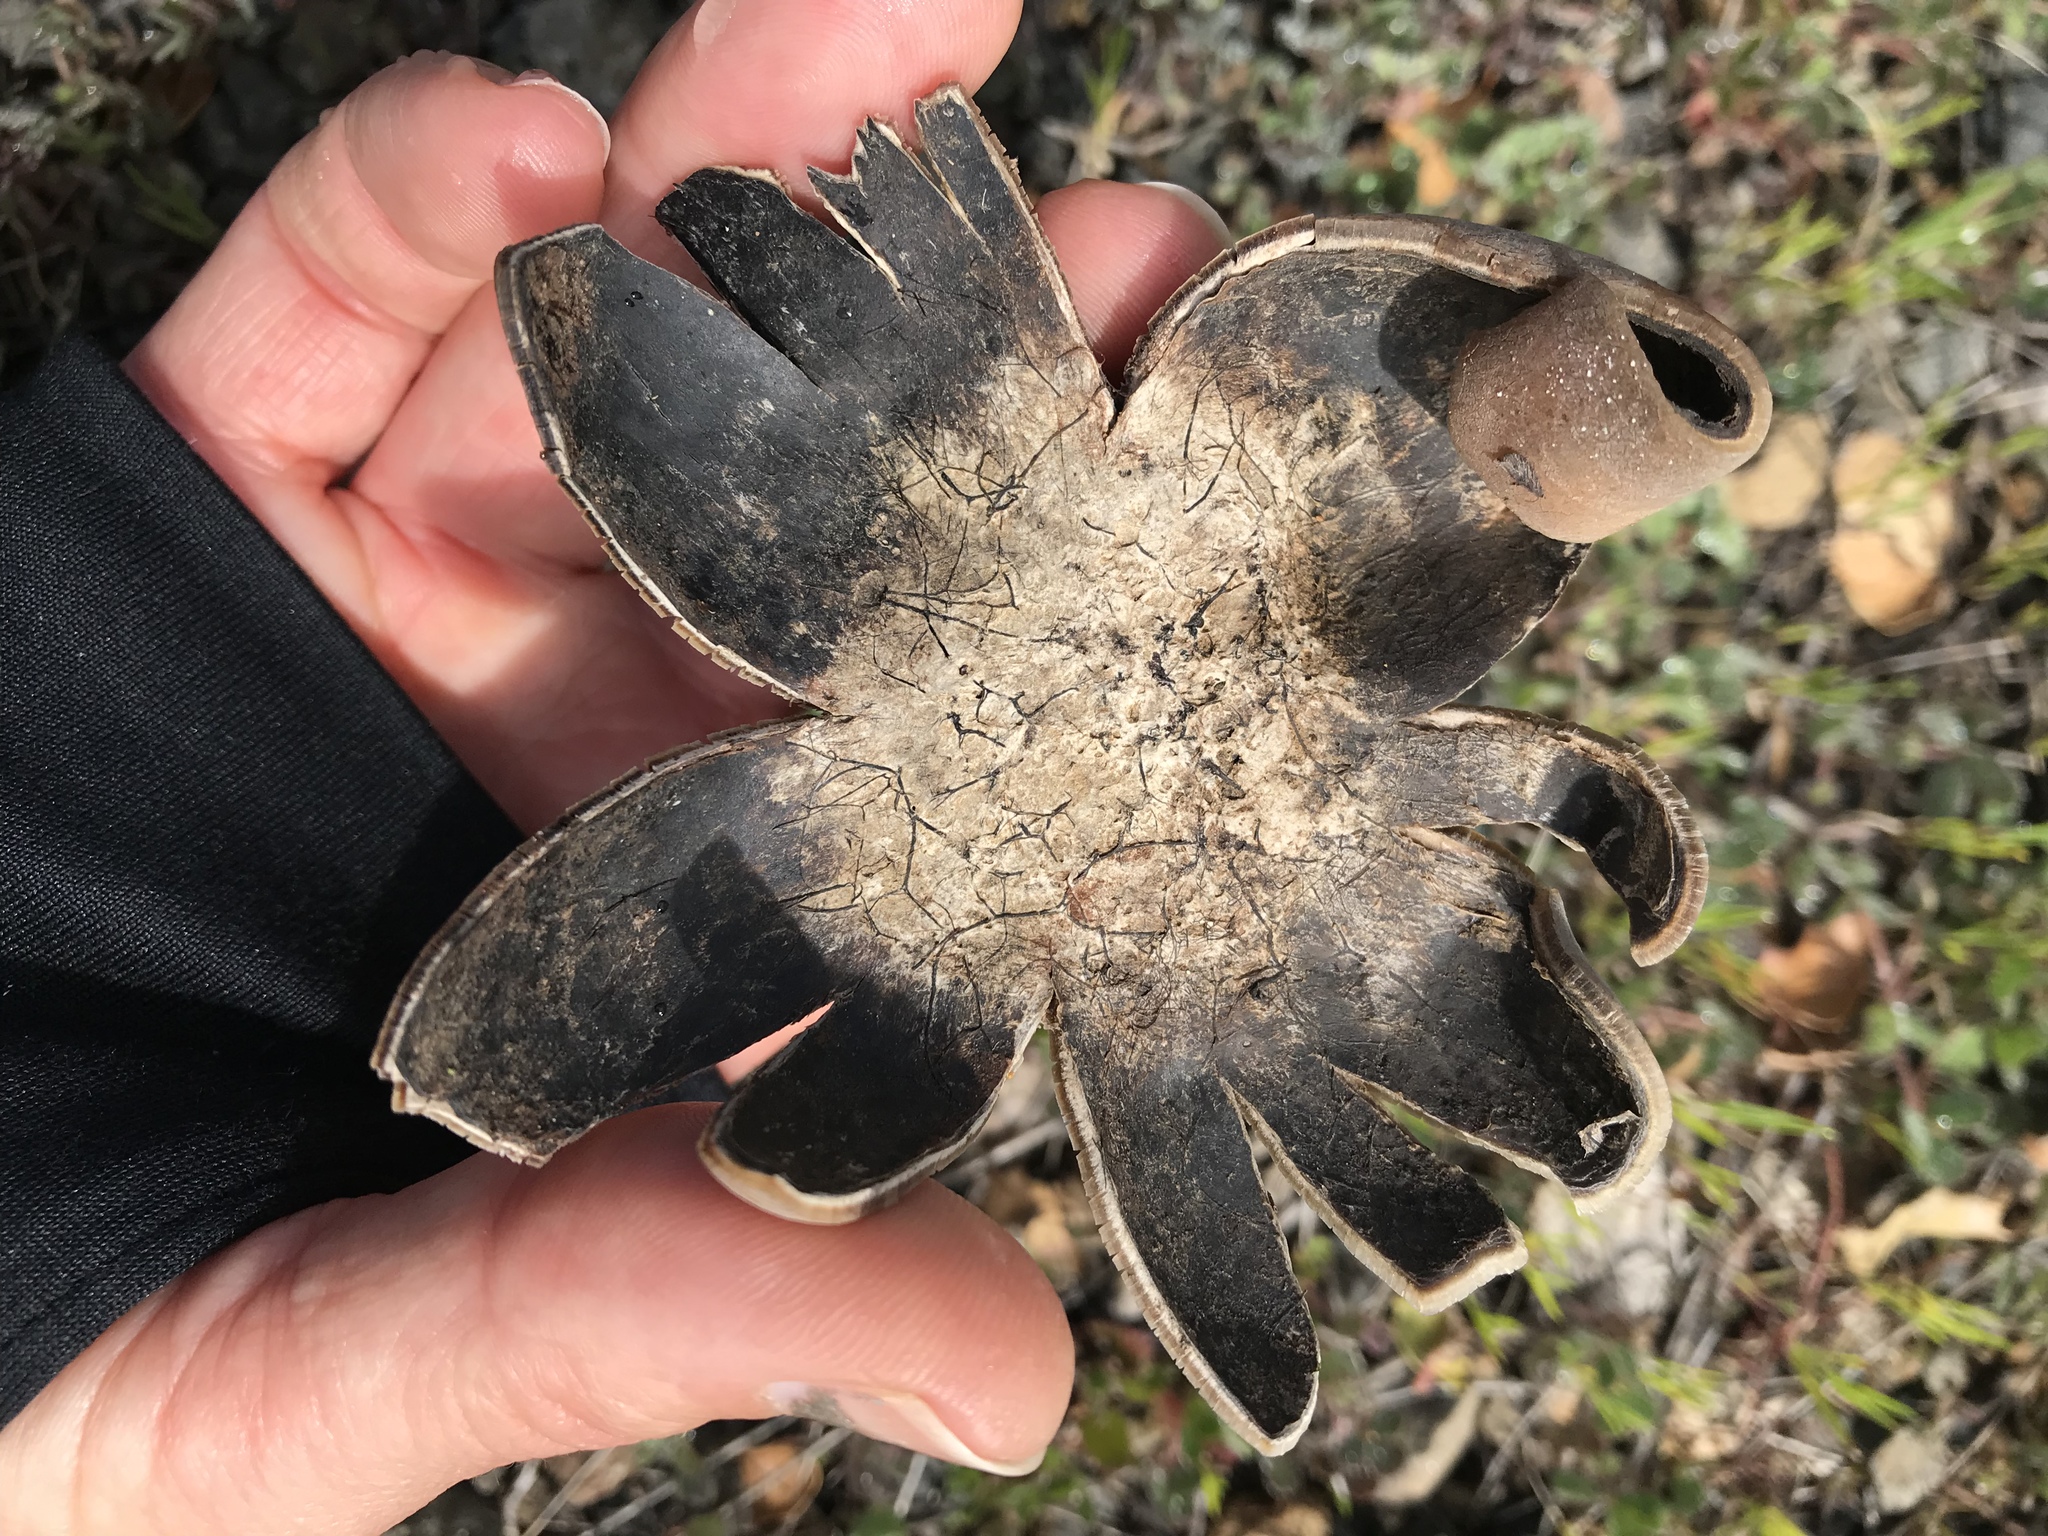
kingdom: Fungi
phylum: Basidiomycota
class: Agaricomycetes
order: Boletales
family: Diplocystidiaceae
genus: Astraeus
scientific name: Astraeus pteridis
